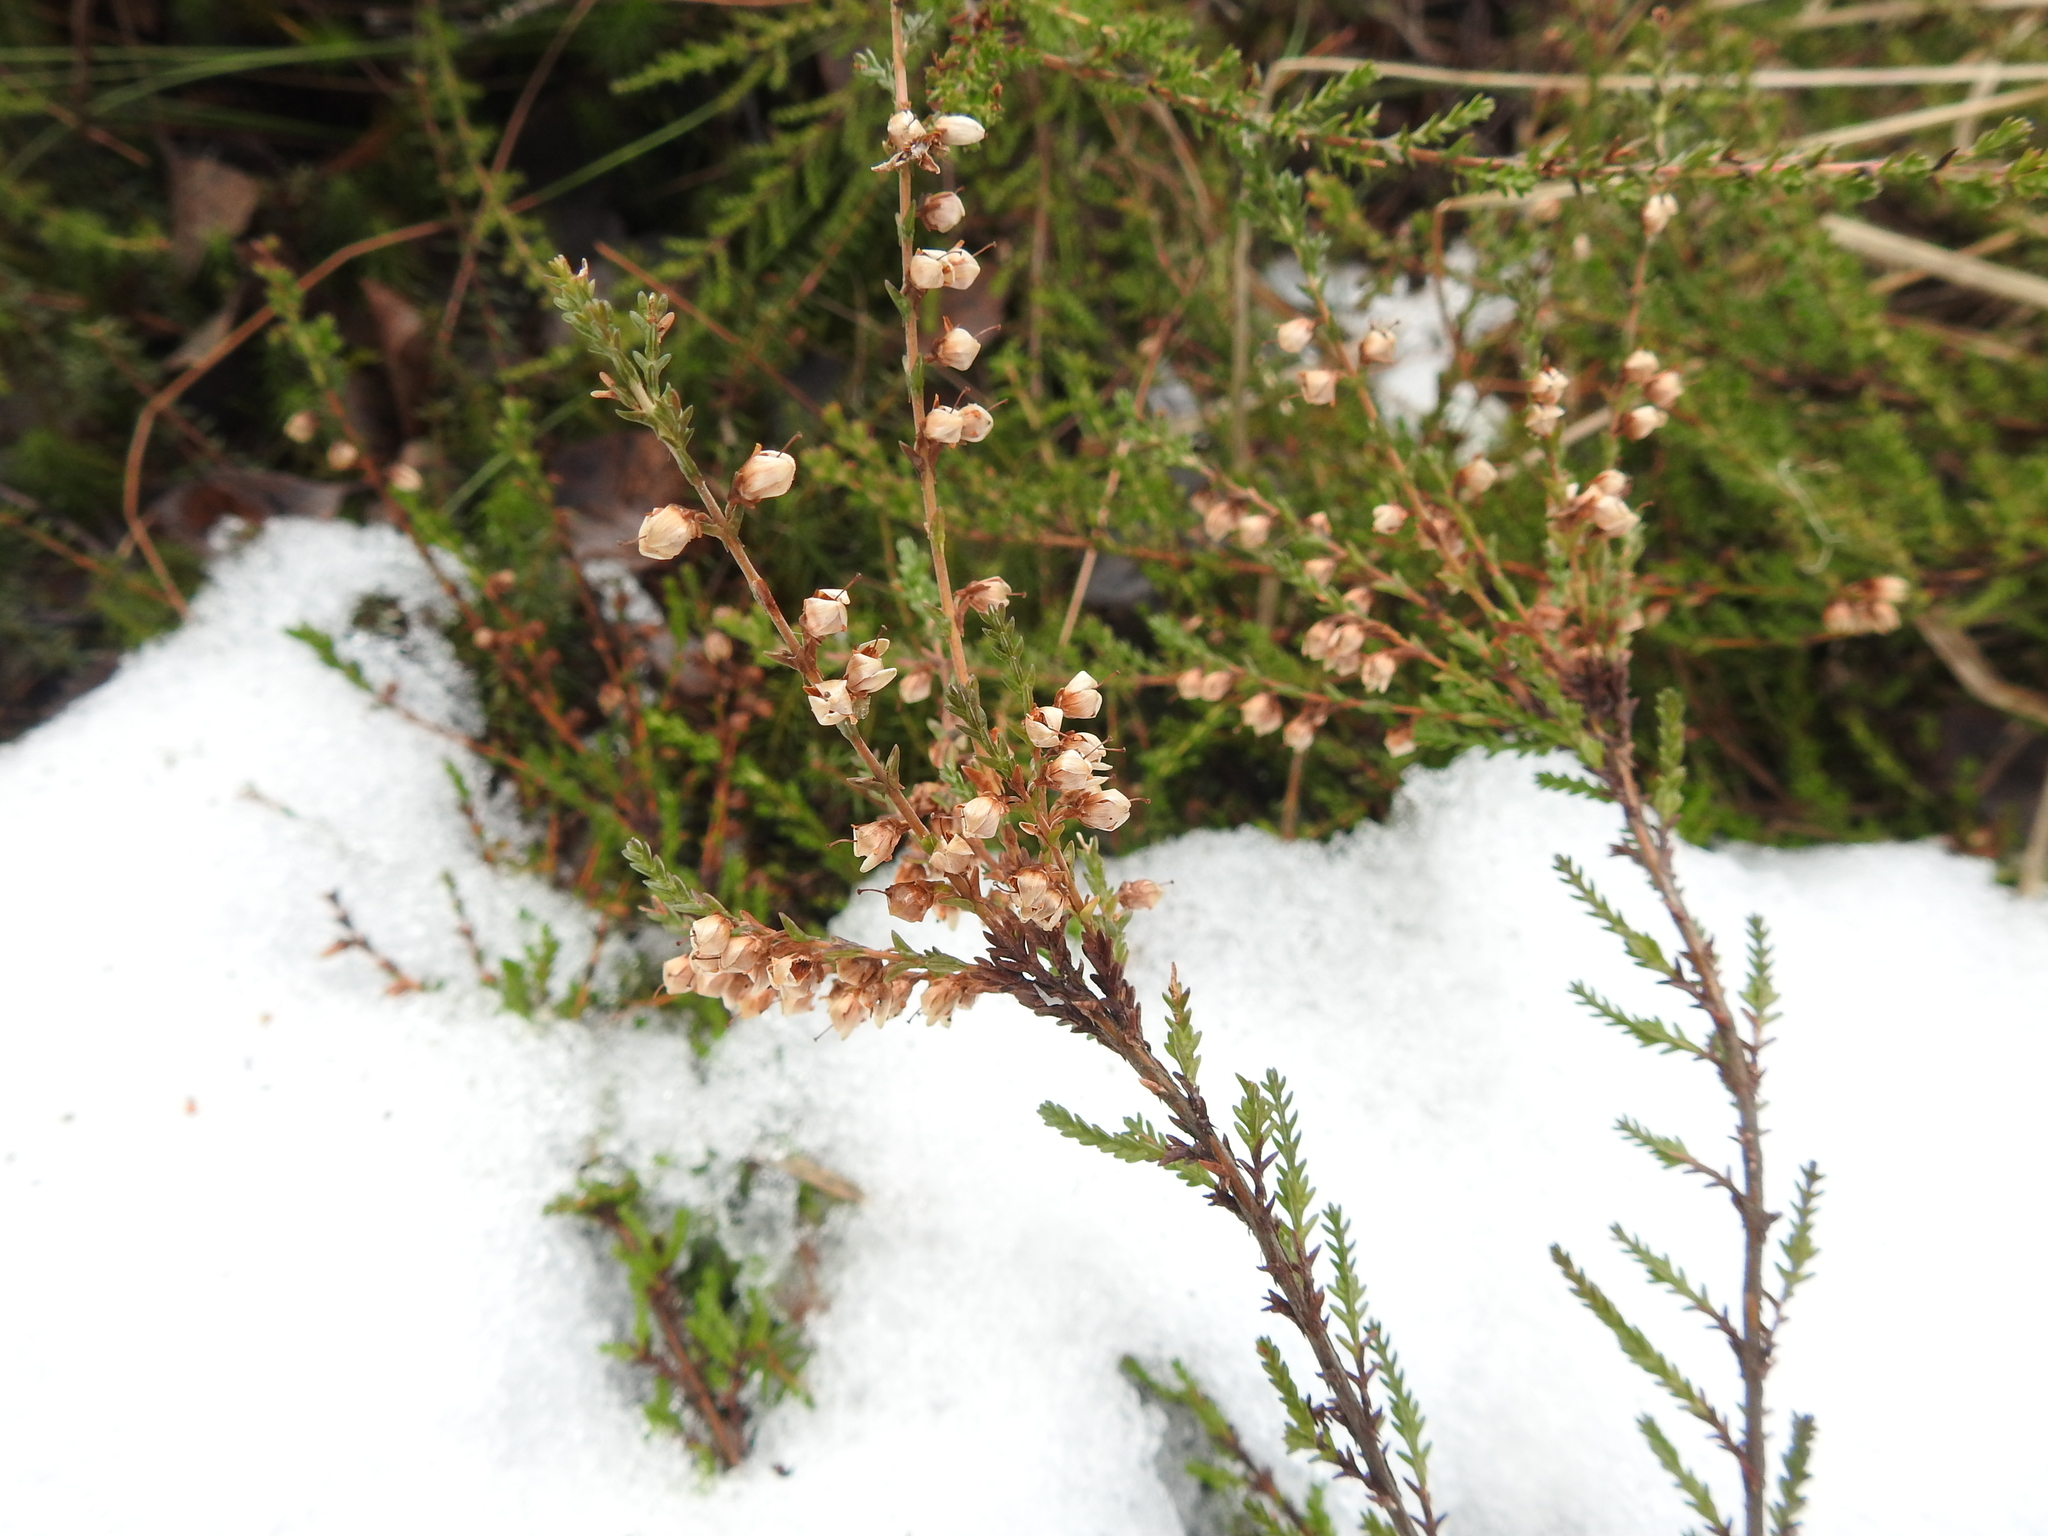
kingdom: Plantae
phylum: Tracheophyta
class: Magnoliopsida
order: Ericales
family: Ericaceae
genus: Calluna
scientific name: Calluna vulgaris
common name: Heather
